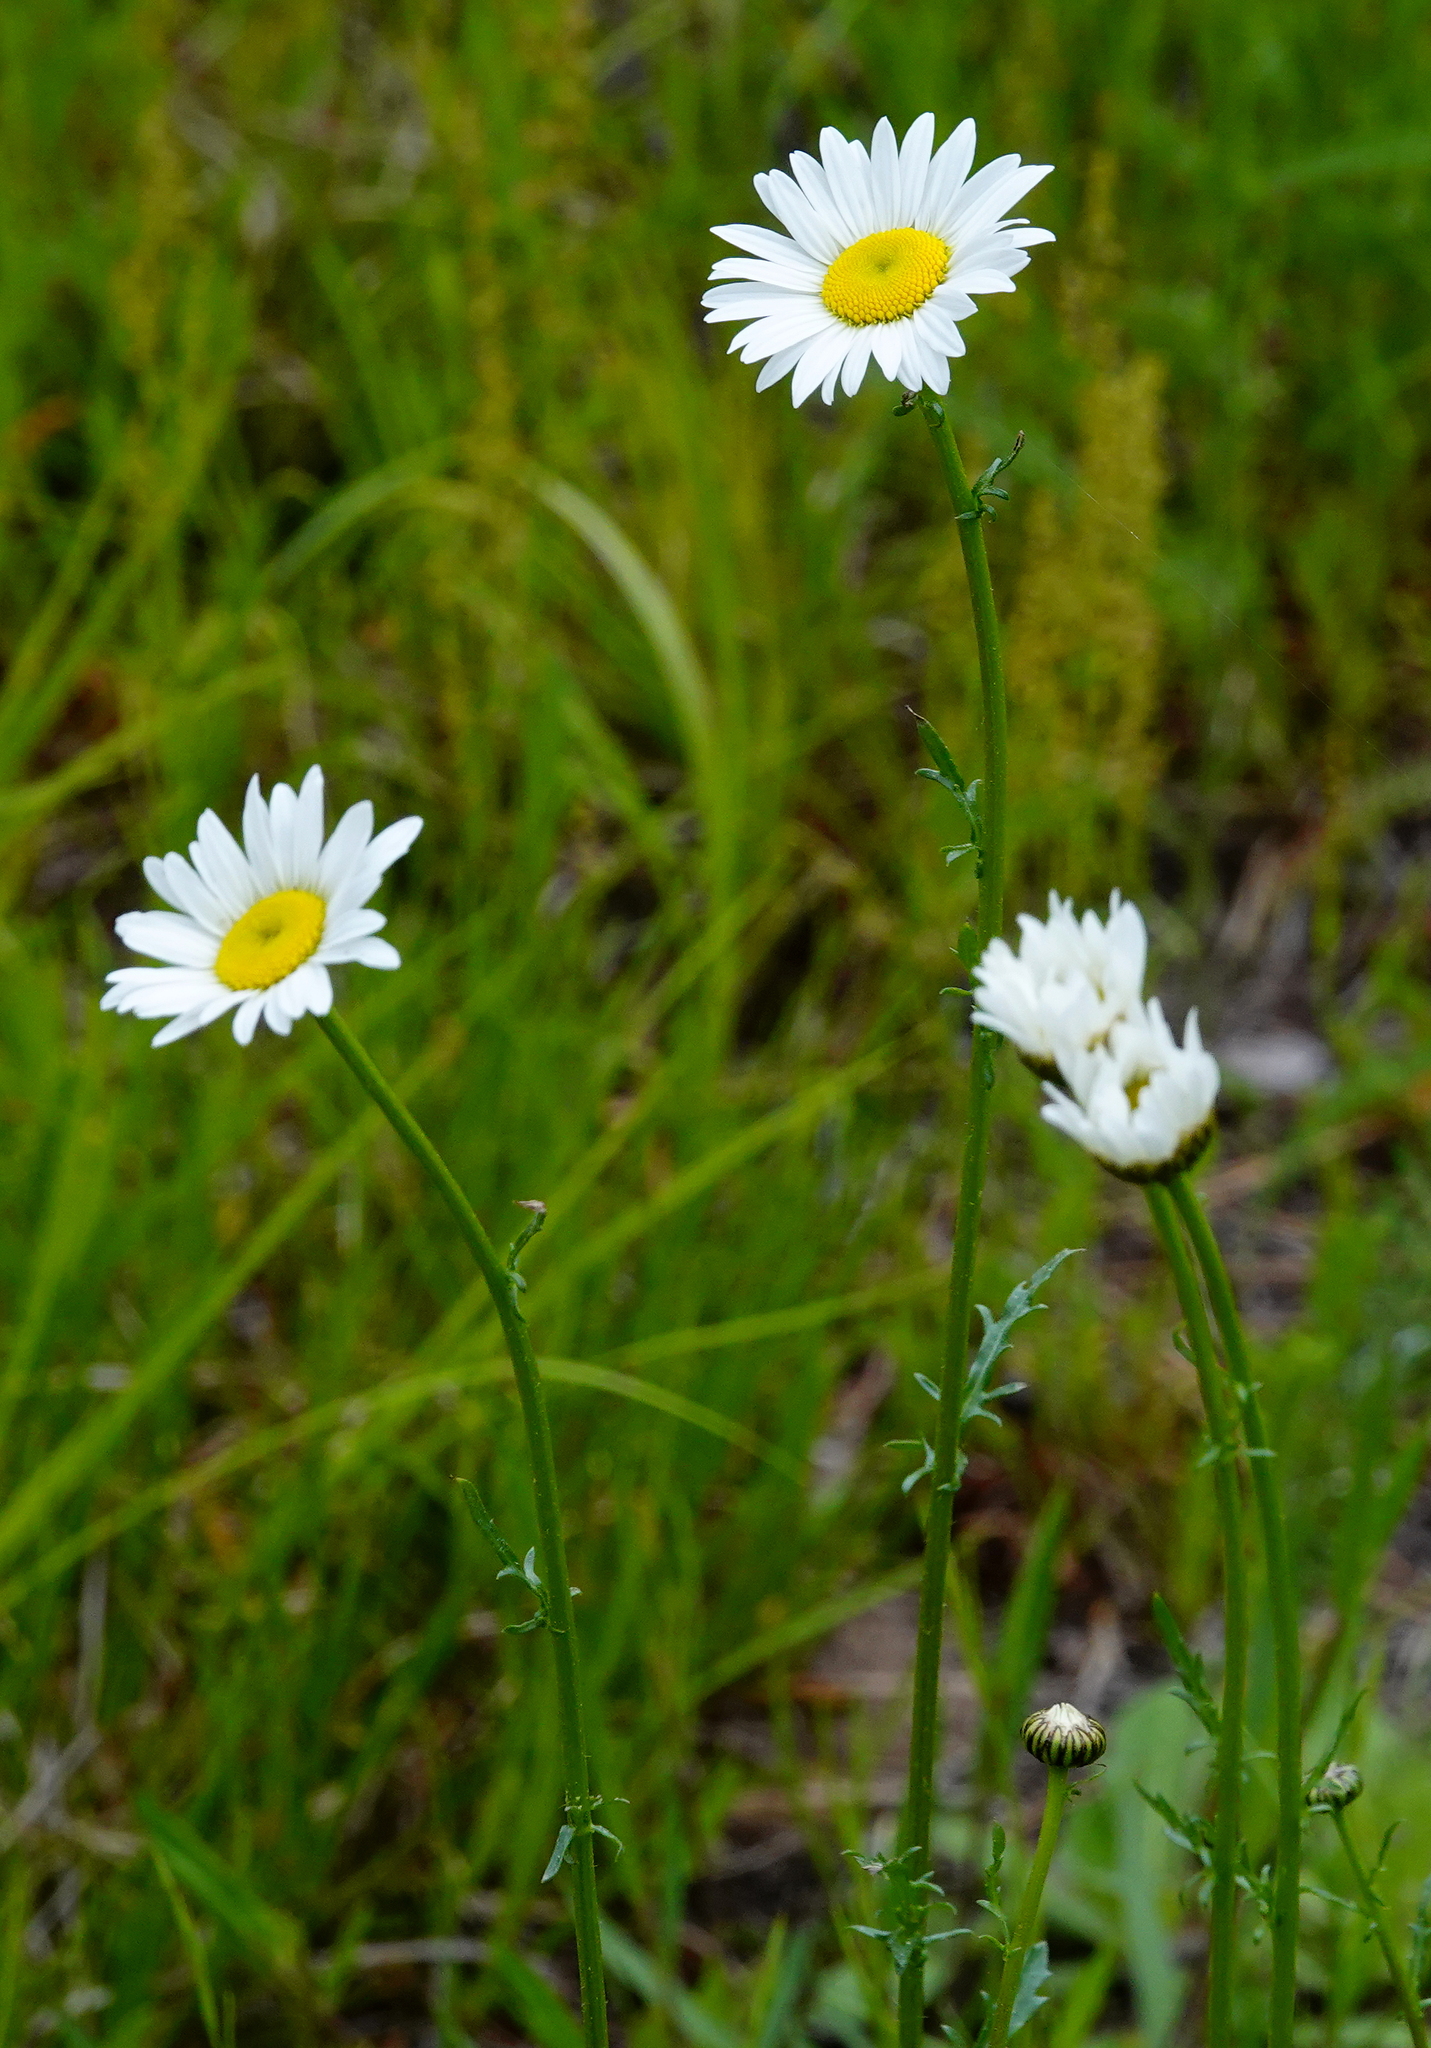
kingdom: Plantae
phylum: Tracheophyta
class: Magnoliopsida
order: Asterales
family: Asteraceae
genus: Leucanthemum
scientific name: Leucanthemum vulgare
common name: Oxeye daisy
